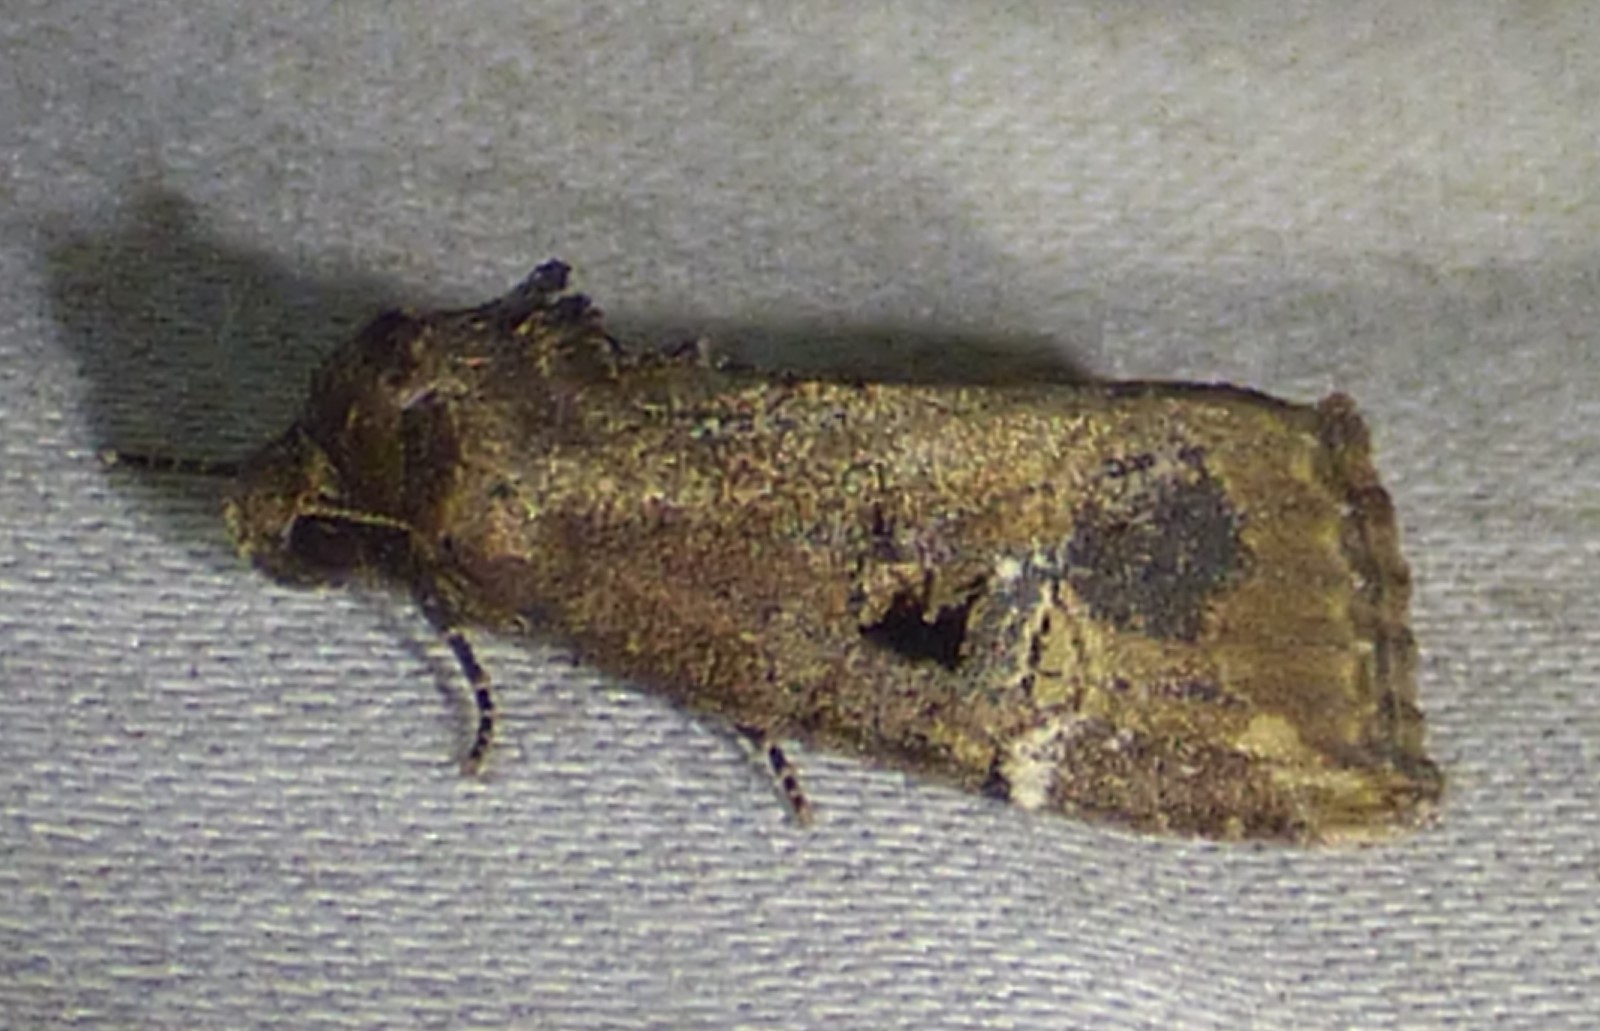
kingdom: Animalia
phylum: Arthropoda
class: Insecta
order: Lepidoptera
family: Noctuidae
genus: Elaphria
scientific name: Elaphria versicolor
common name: Fir harlequin
